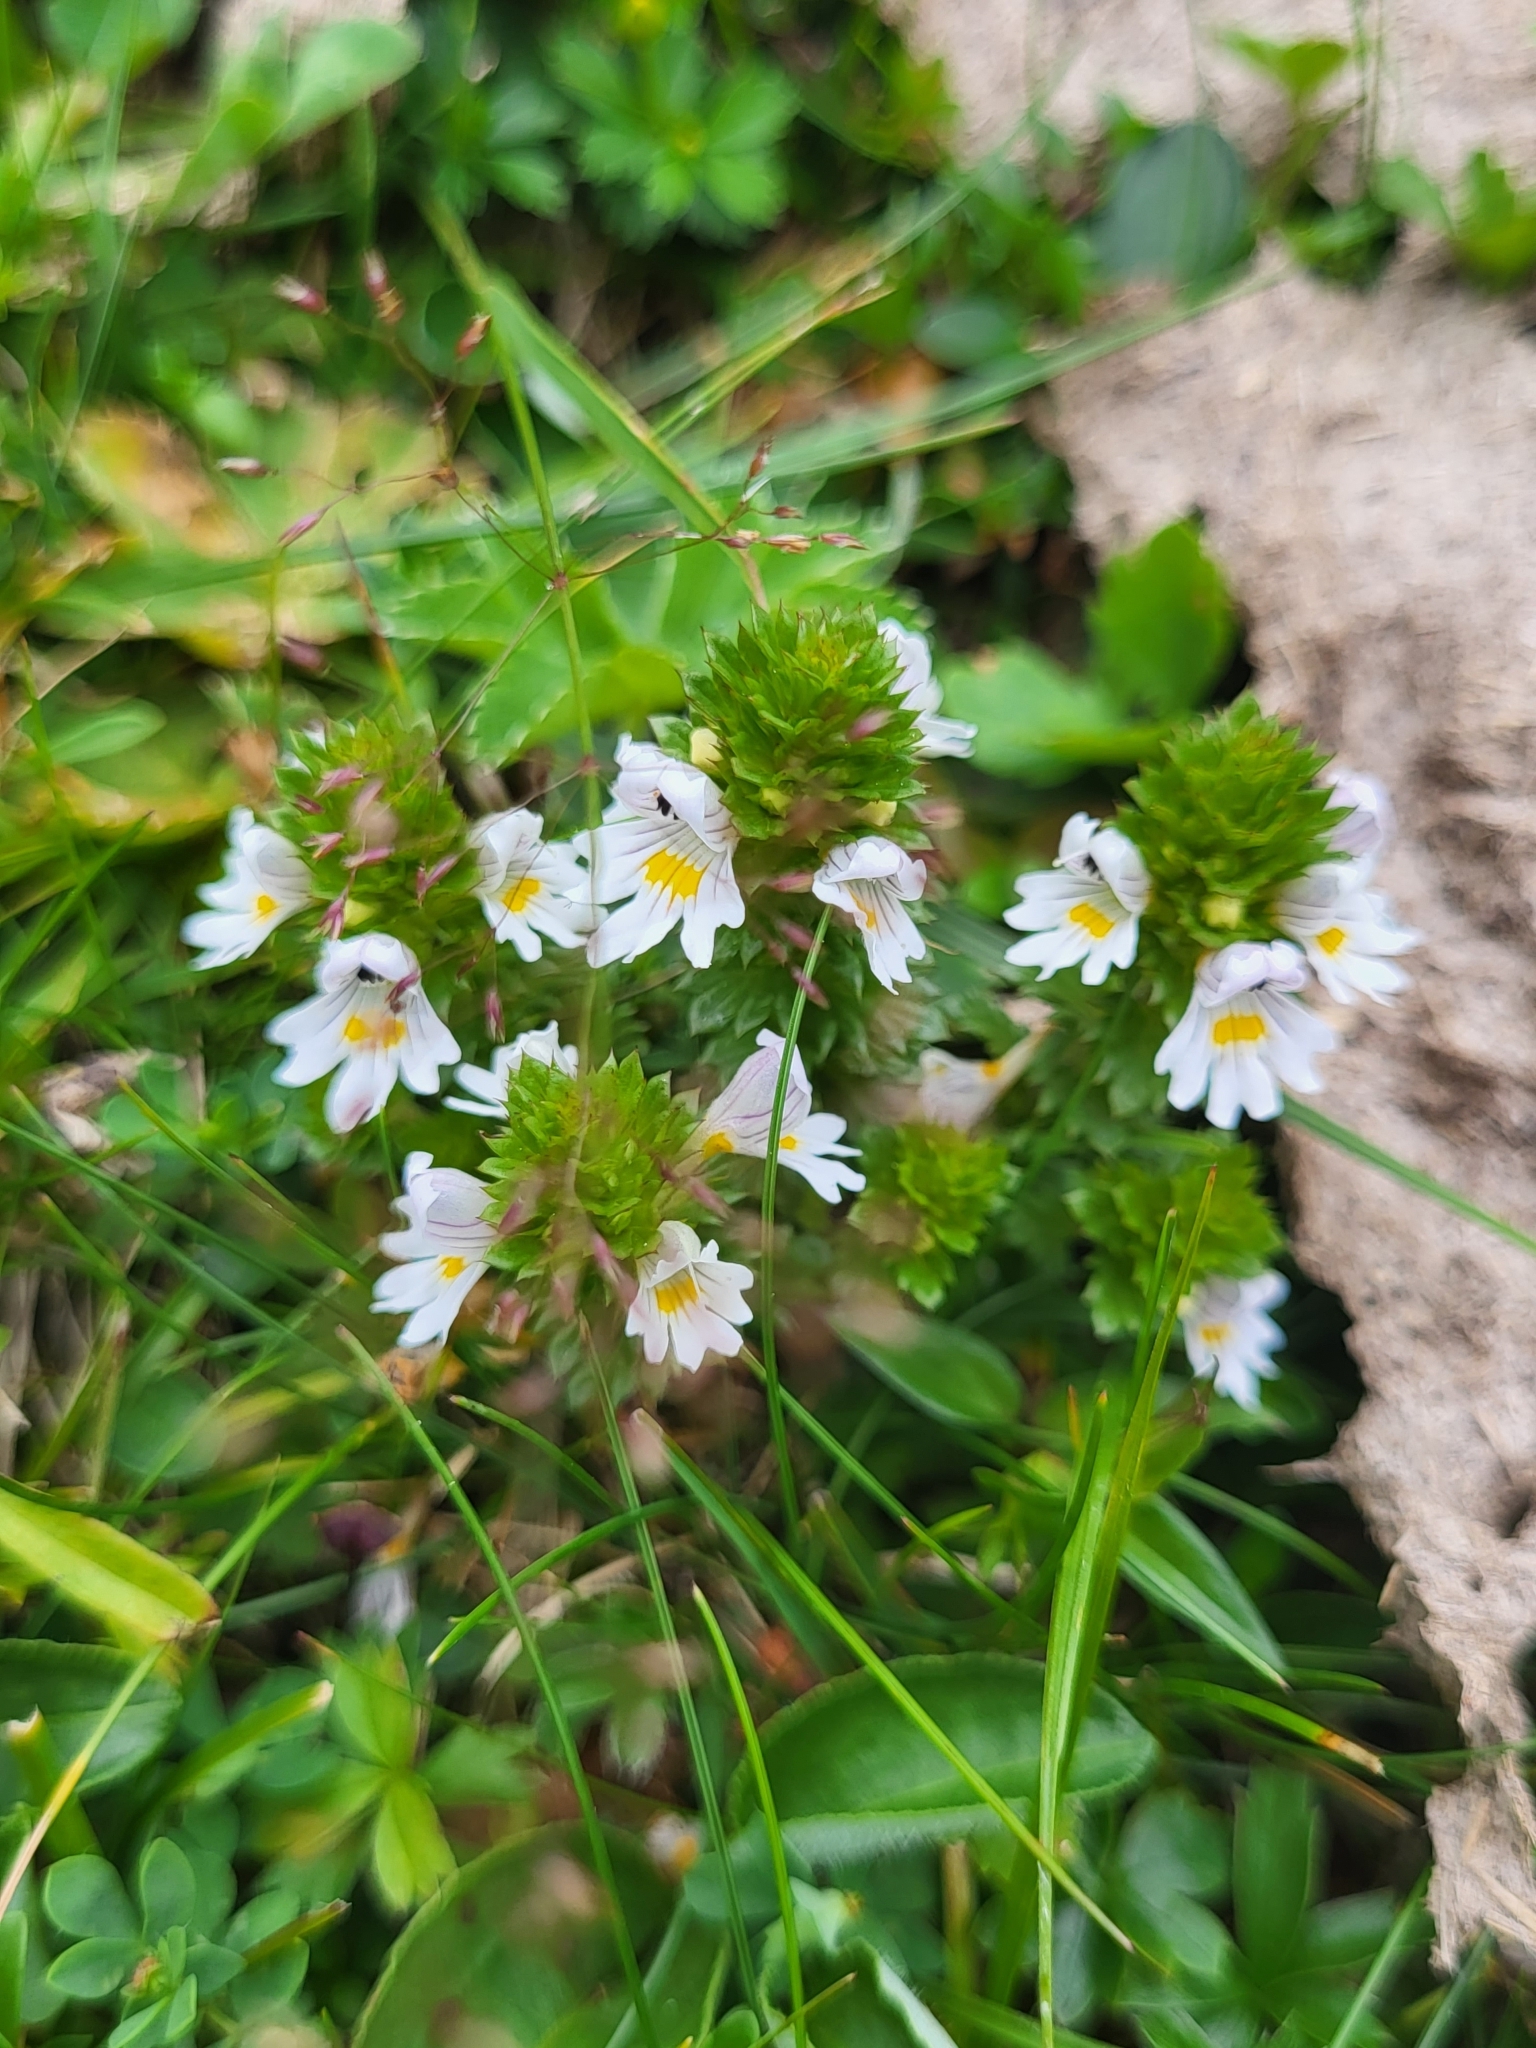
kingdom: Plantae
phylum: Tracheophyta
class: Magnoliopsida
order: Lamiales
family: Orobanchaceae
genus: Euphrasia
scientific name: Euphrasia picta
